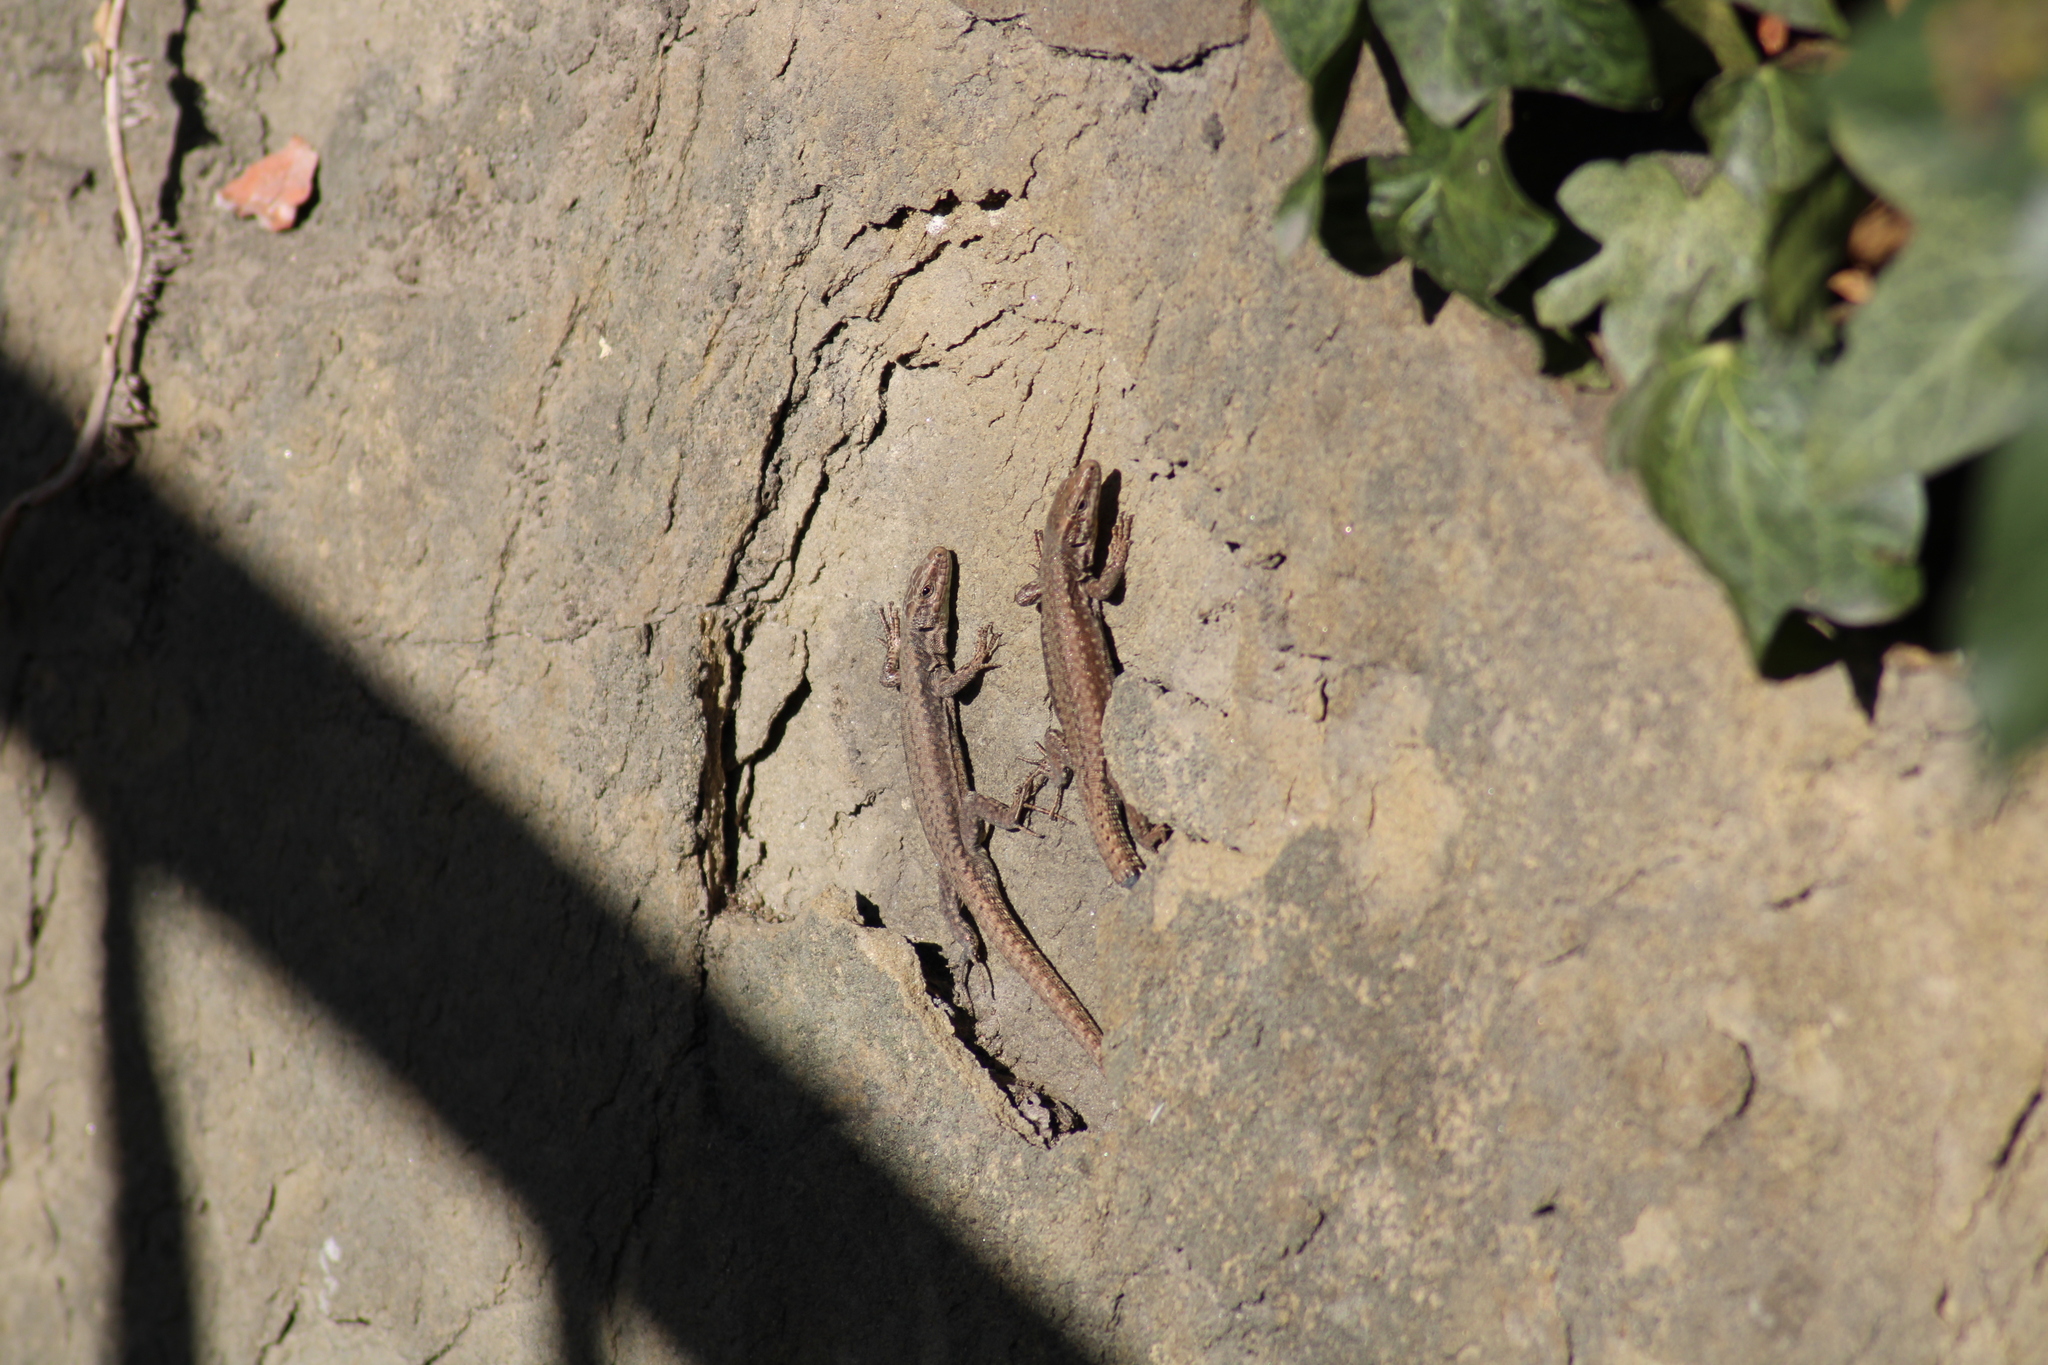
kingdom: Animalia
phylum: Chordata
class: Squamata
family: Lacertidae
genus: Podarcis
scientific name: Podarcis muralis
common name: Common wall lizard
